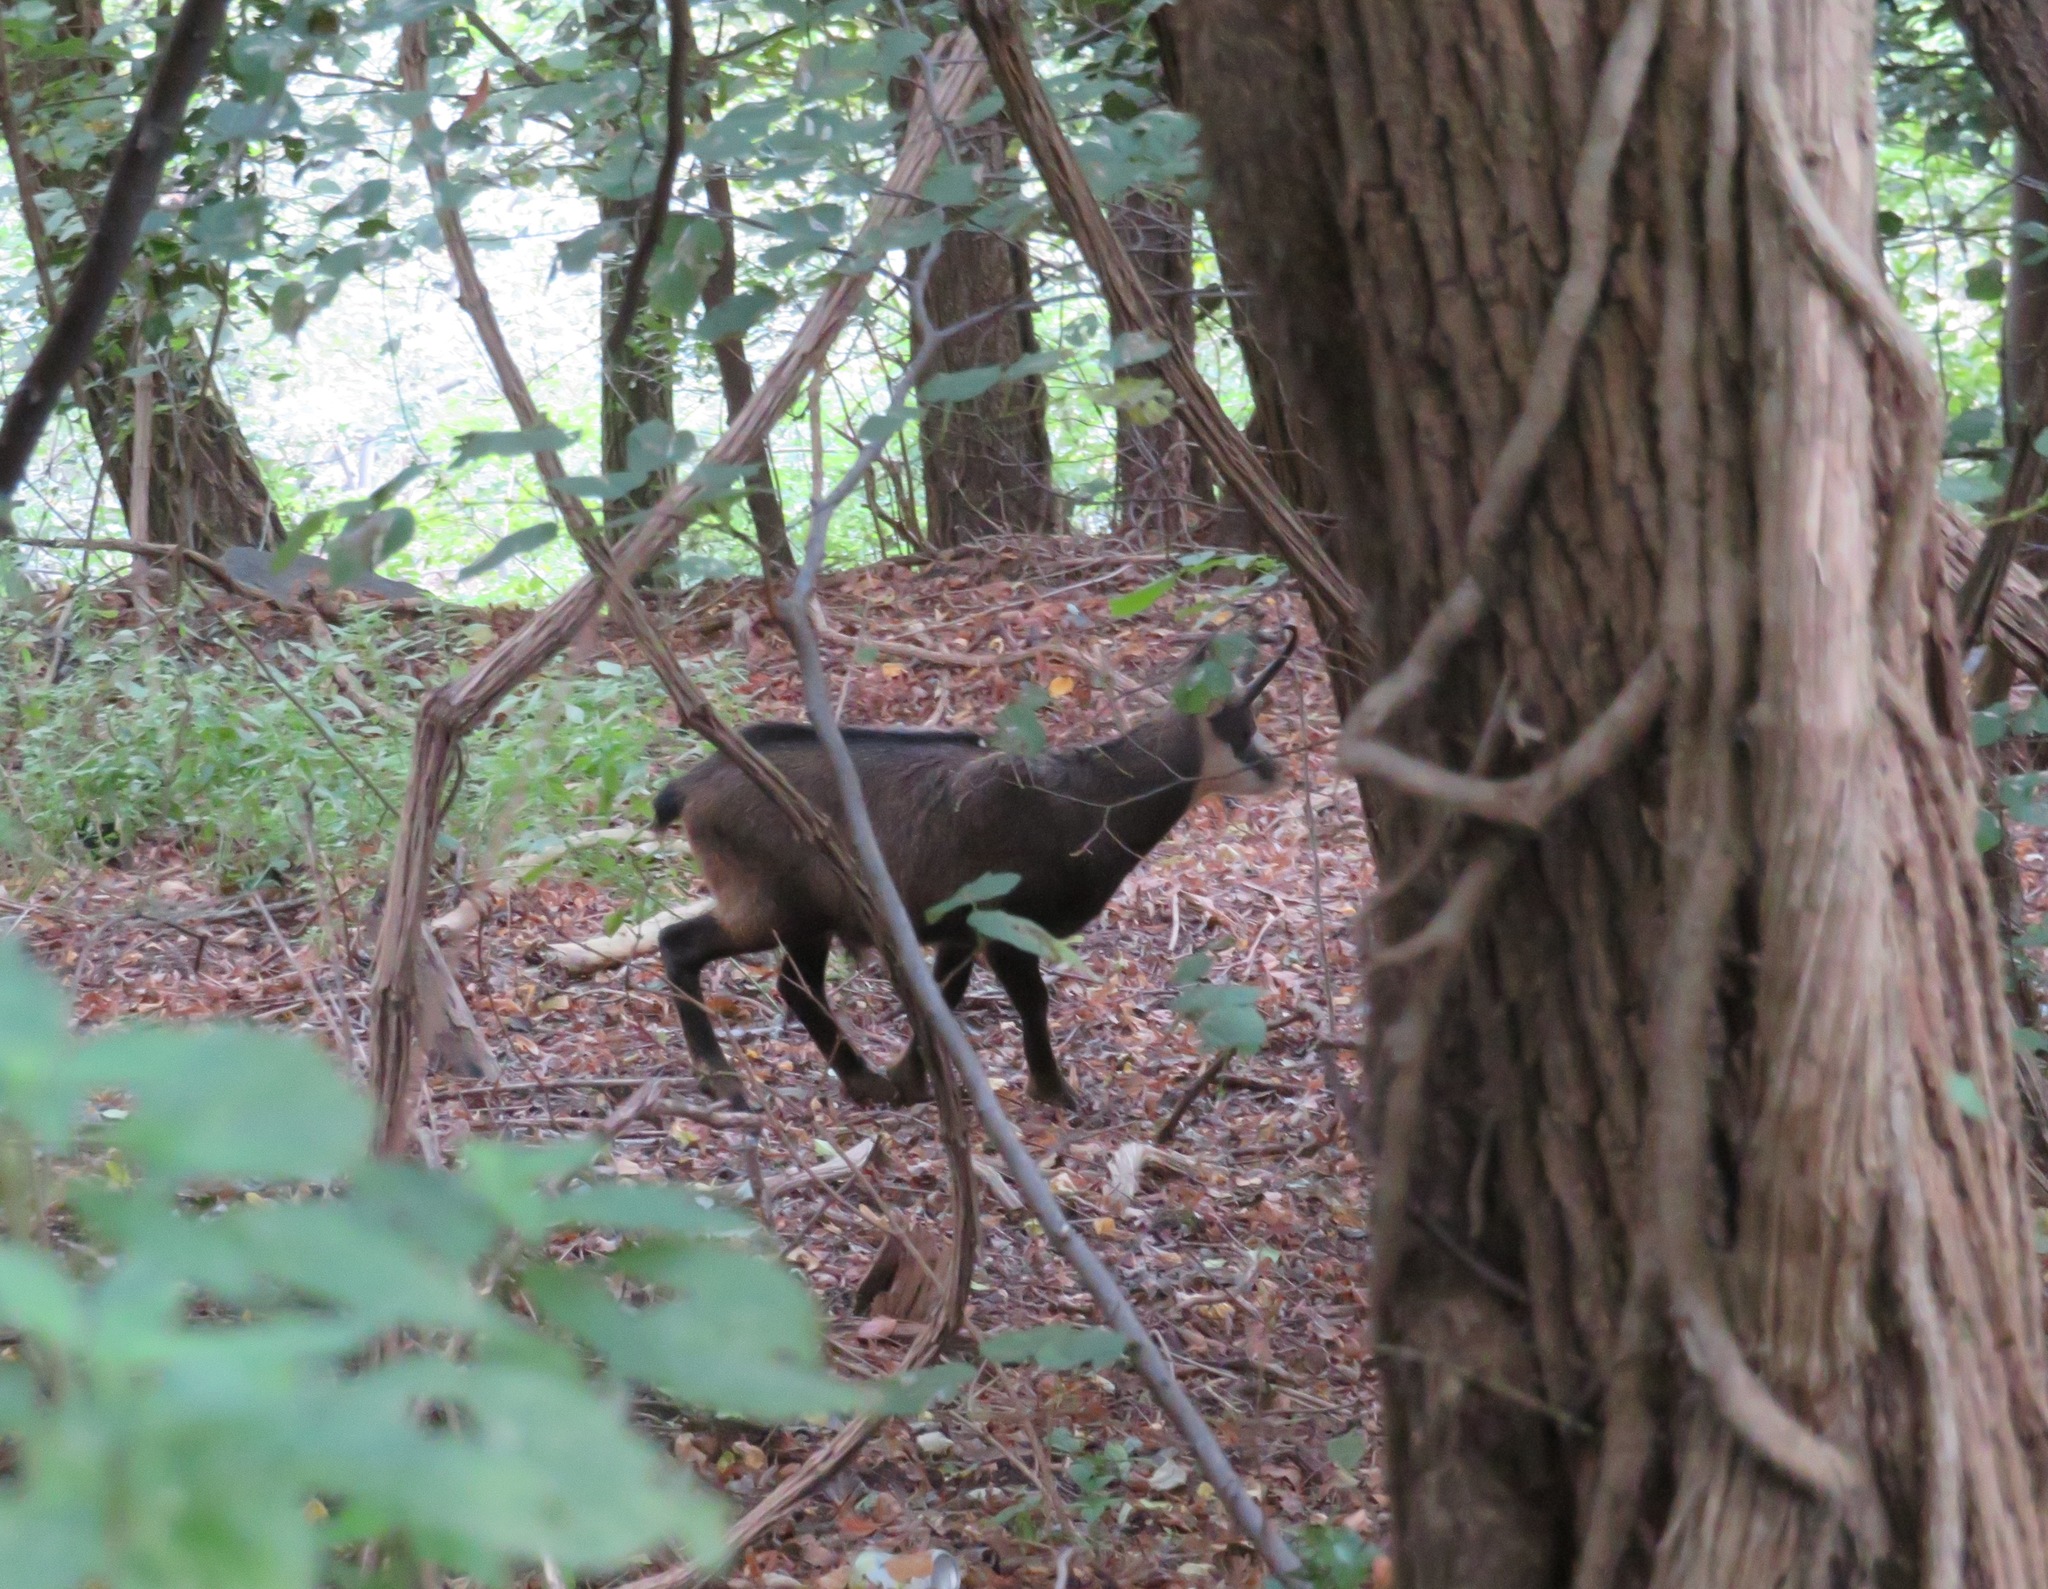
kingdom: Animalia
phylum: Chordata
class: Mammalia
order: Artiodactyla
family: Bovidae
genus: Rupicapra
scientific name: Rupicapra rupicapra
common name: Chamois
